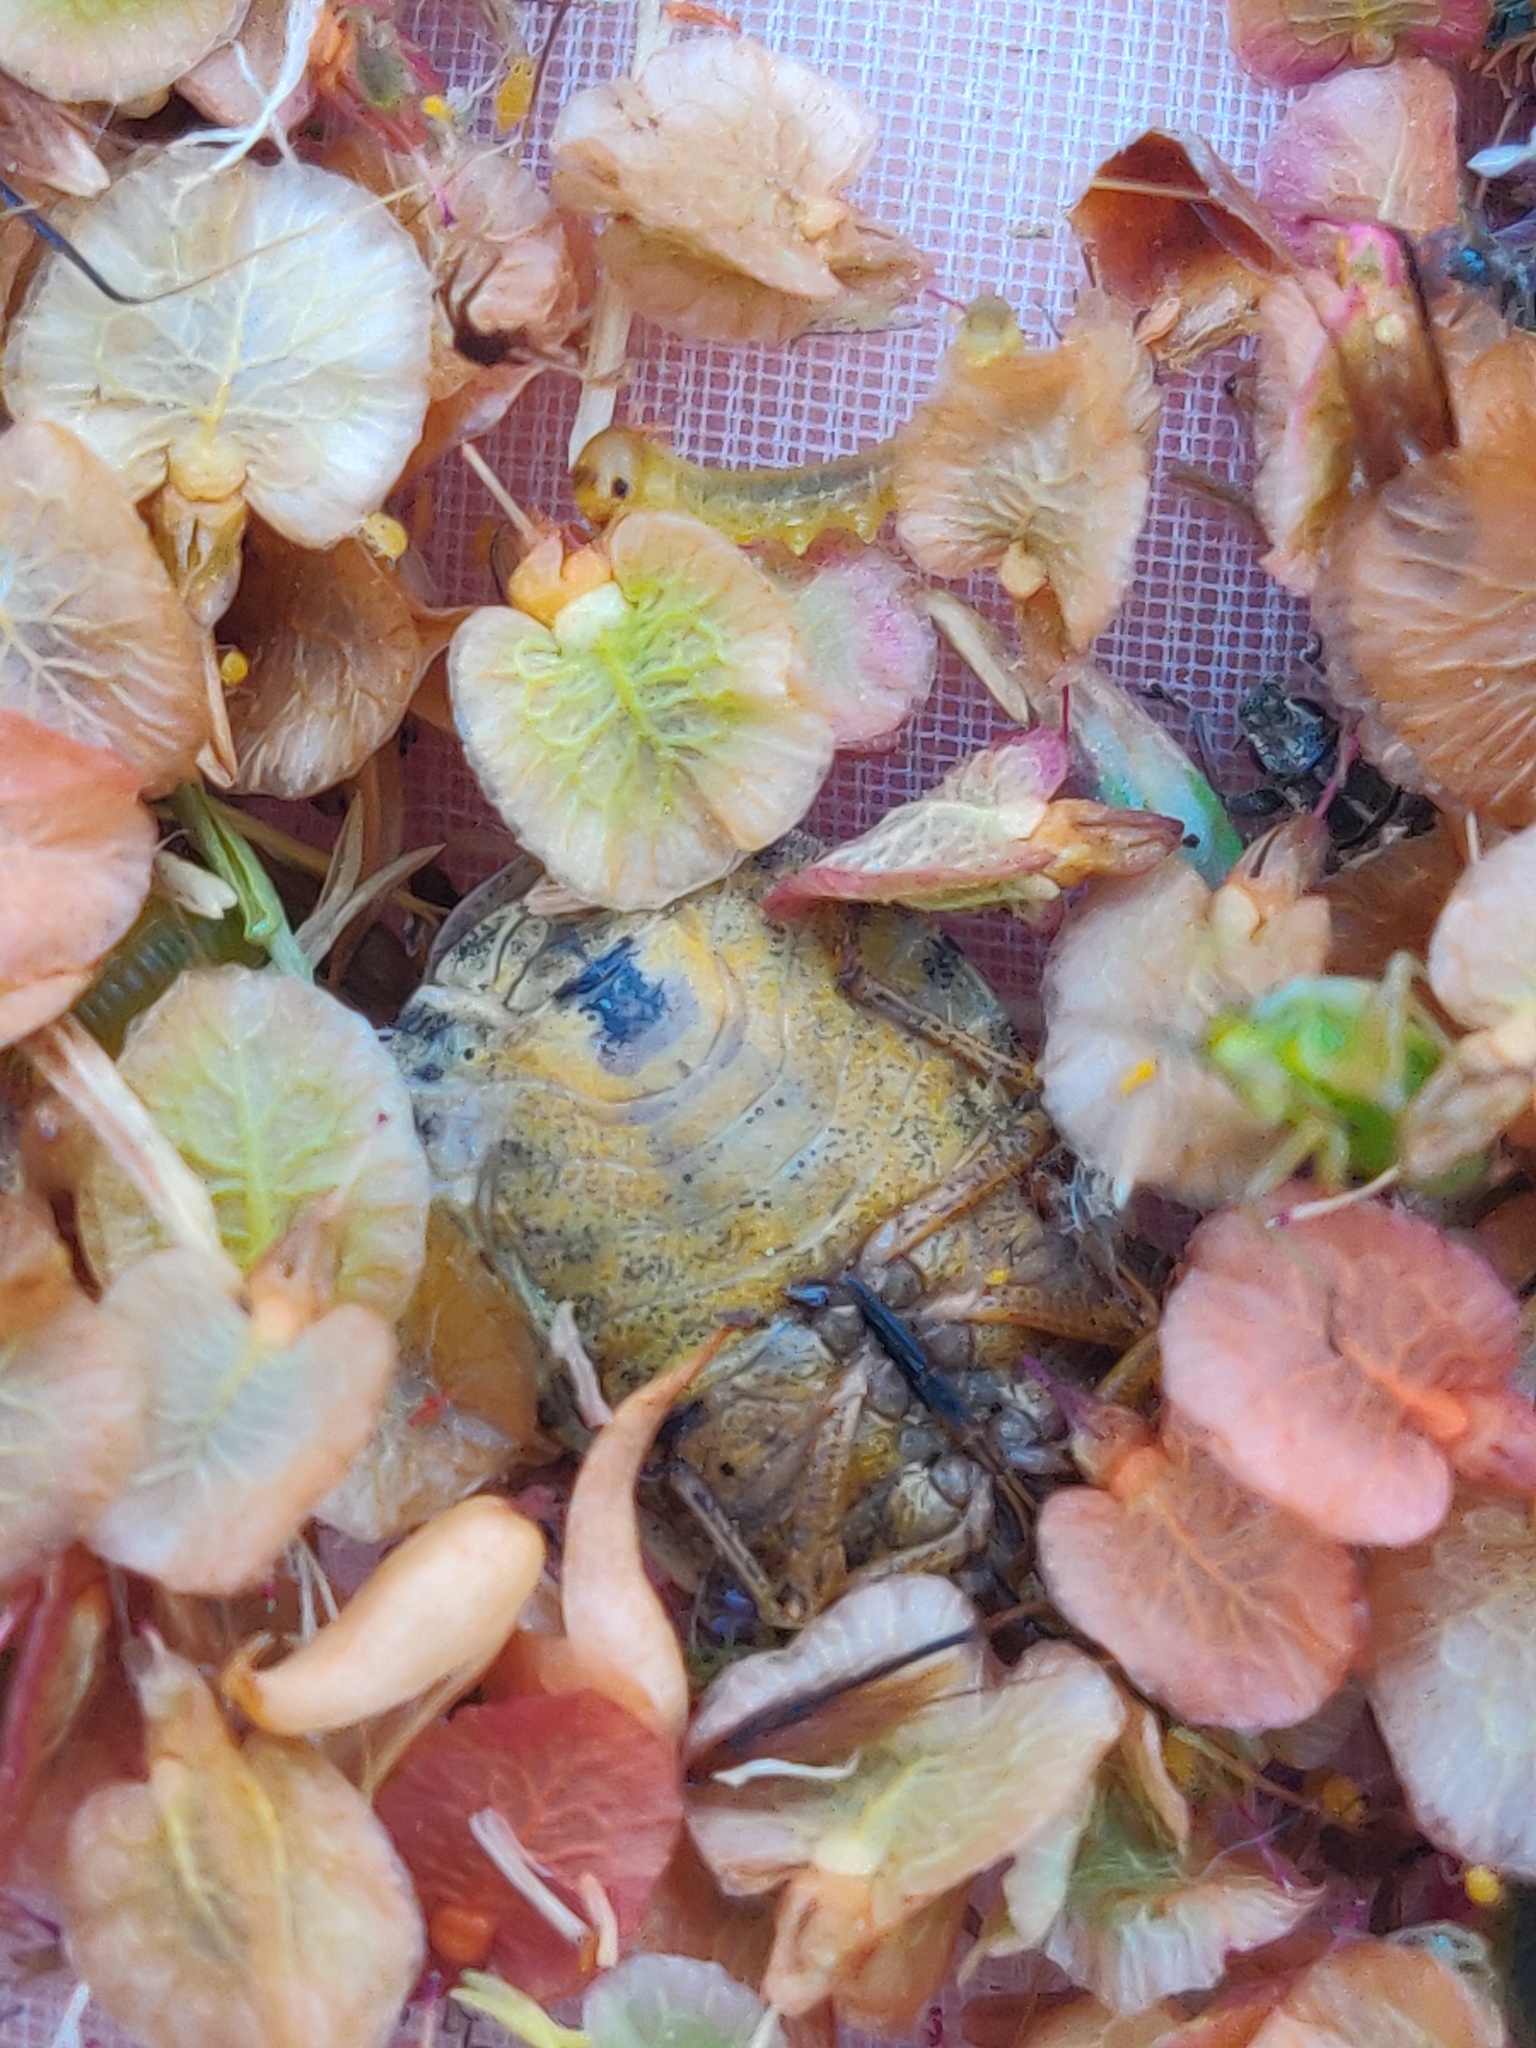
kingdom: Animalia
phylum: Arthropoda
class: Insecta
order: Hemiptera
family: Scutelleridae
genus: Eurygaster
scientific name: Eurygaster testudinaria
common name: Tortoise bug
